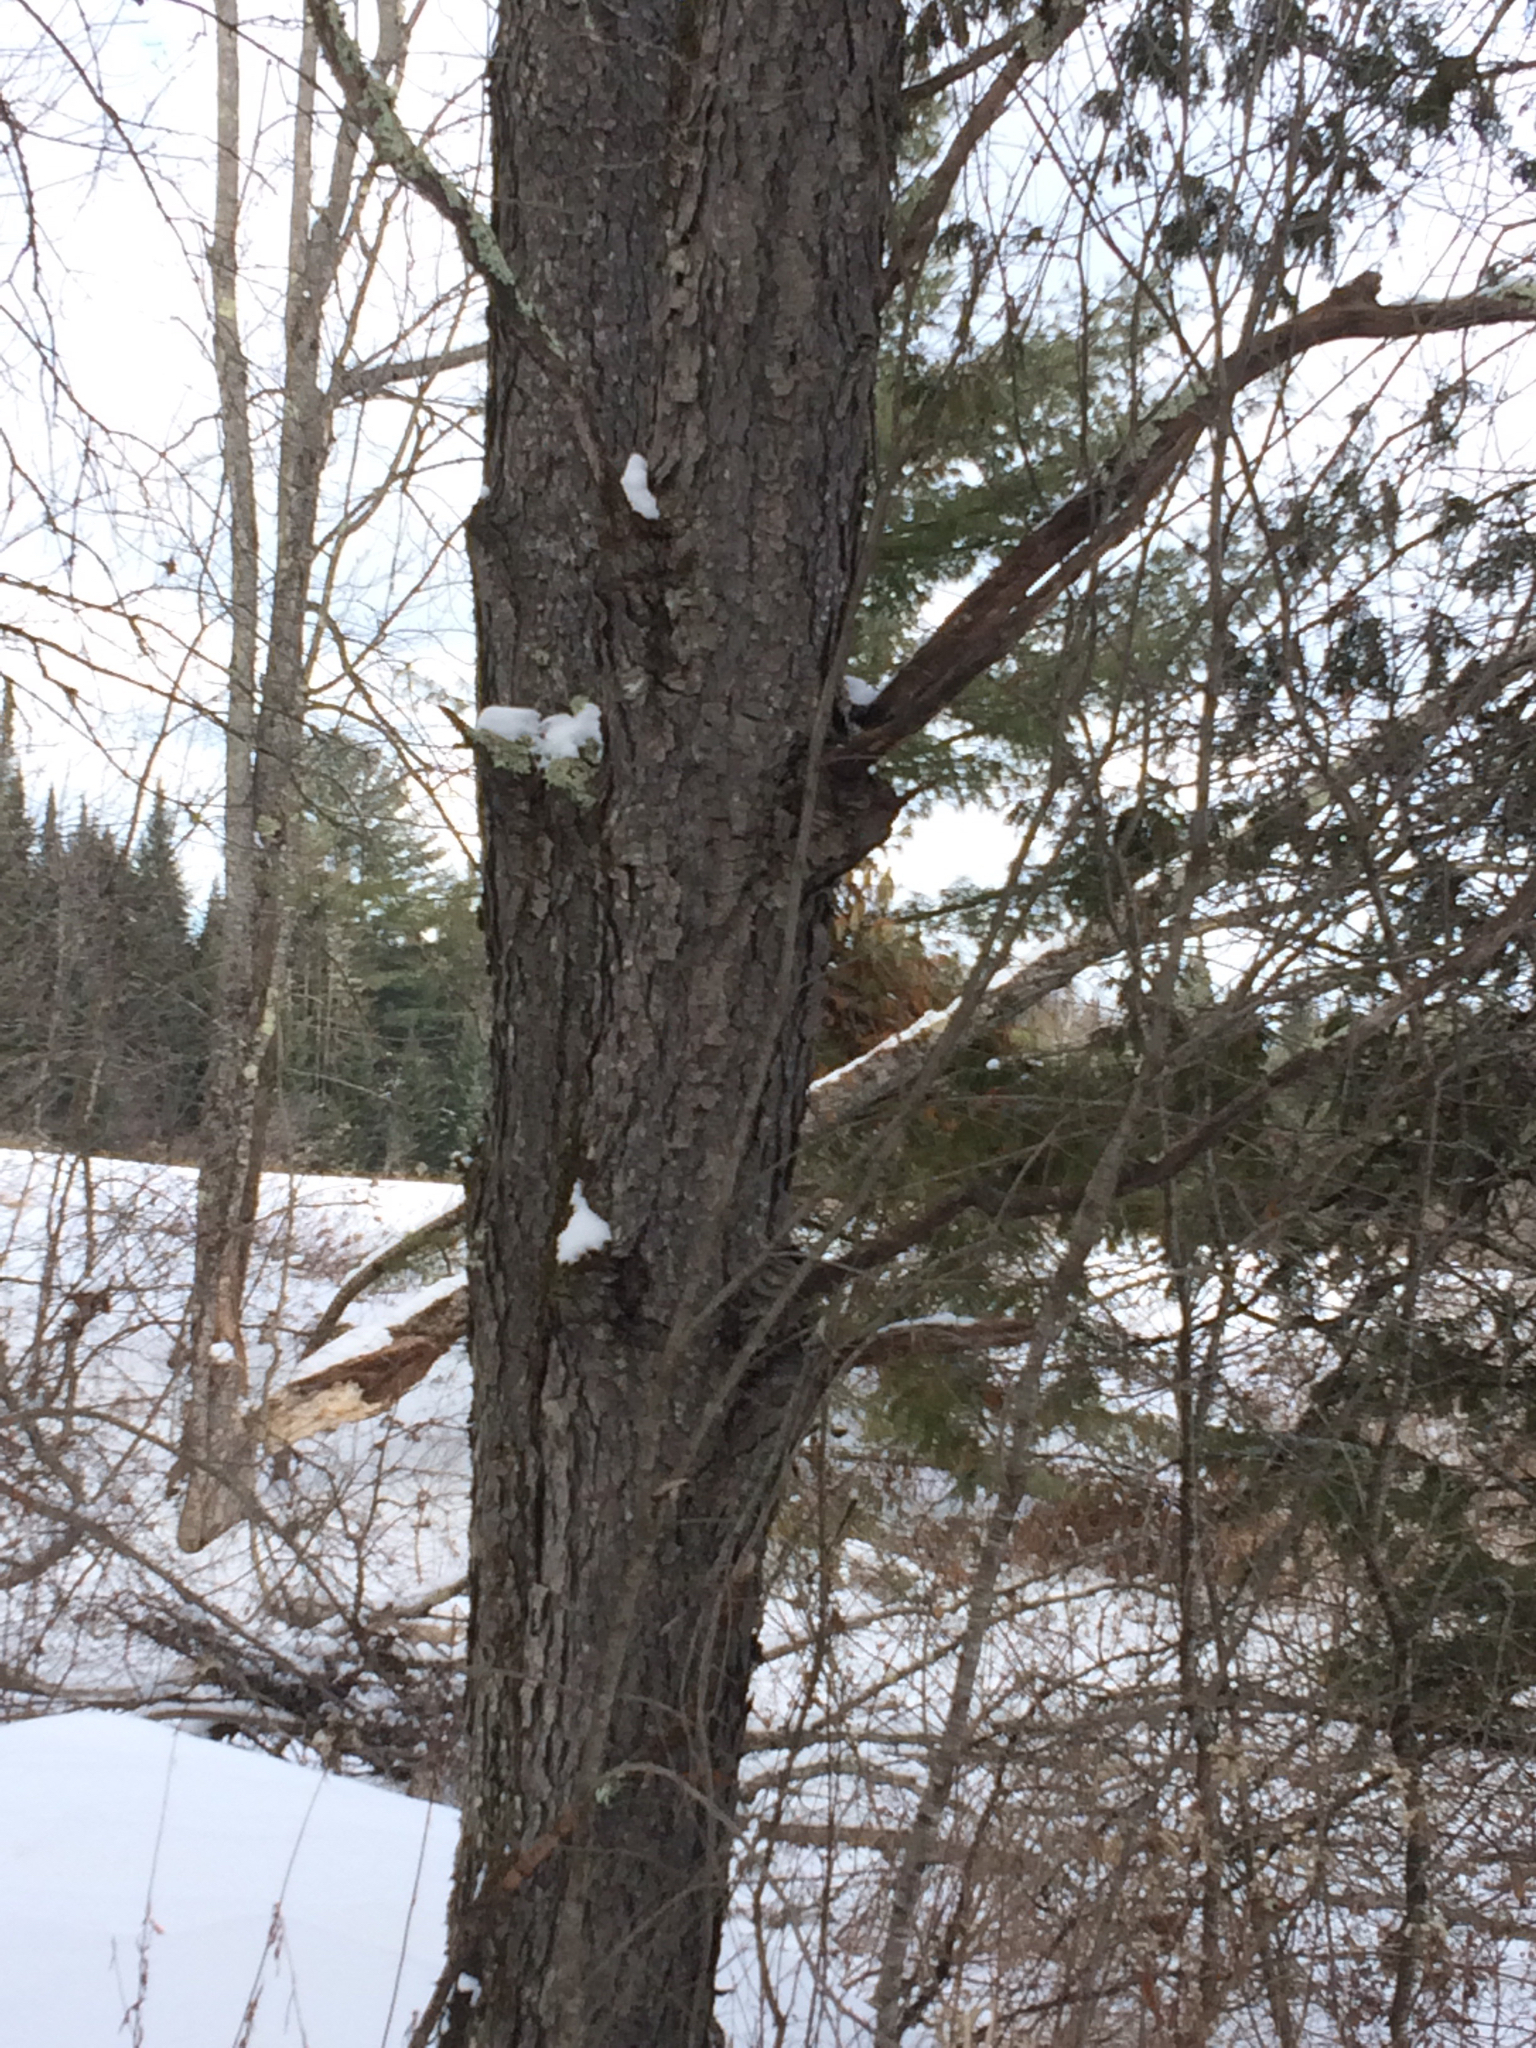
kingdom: Plantae
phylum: Tracheophyta
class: Magnoliopsida
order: Rosales
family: Rosaceae
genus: Prunus
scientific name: Prunus serotina
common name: Black cherry
